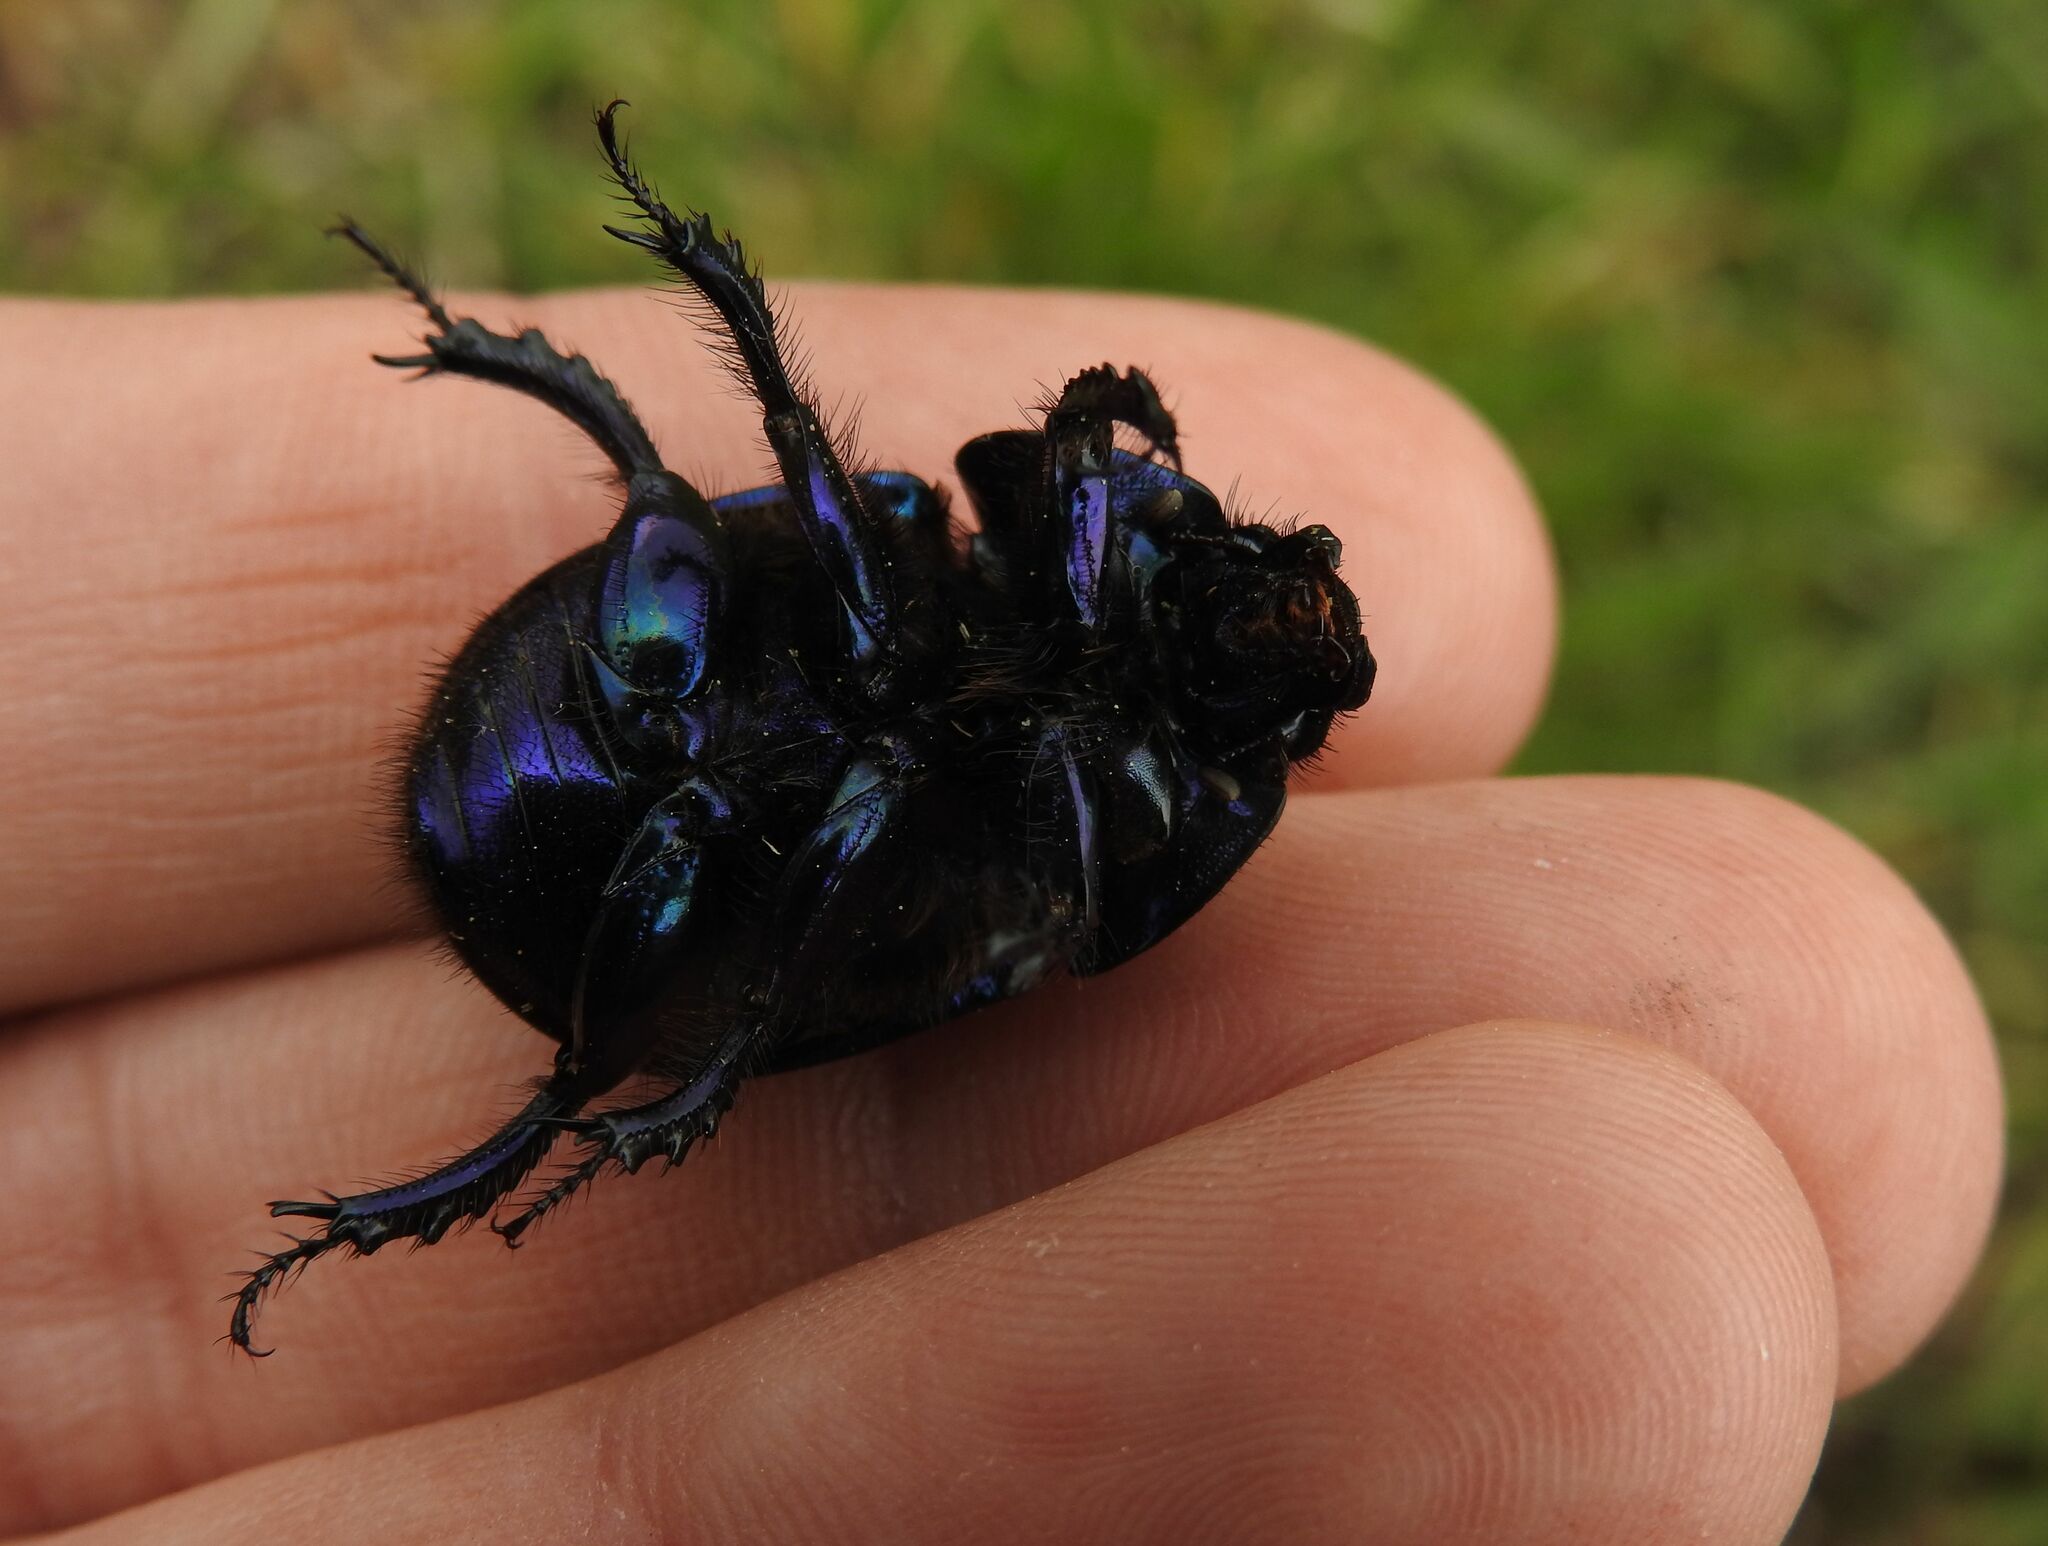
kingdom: Animalia
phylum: Arthropoda
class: Insecta
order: Coleoptera
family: Geotrupidae
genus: Anoplotrupes
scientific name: Anoplotrupes stercorosus
